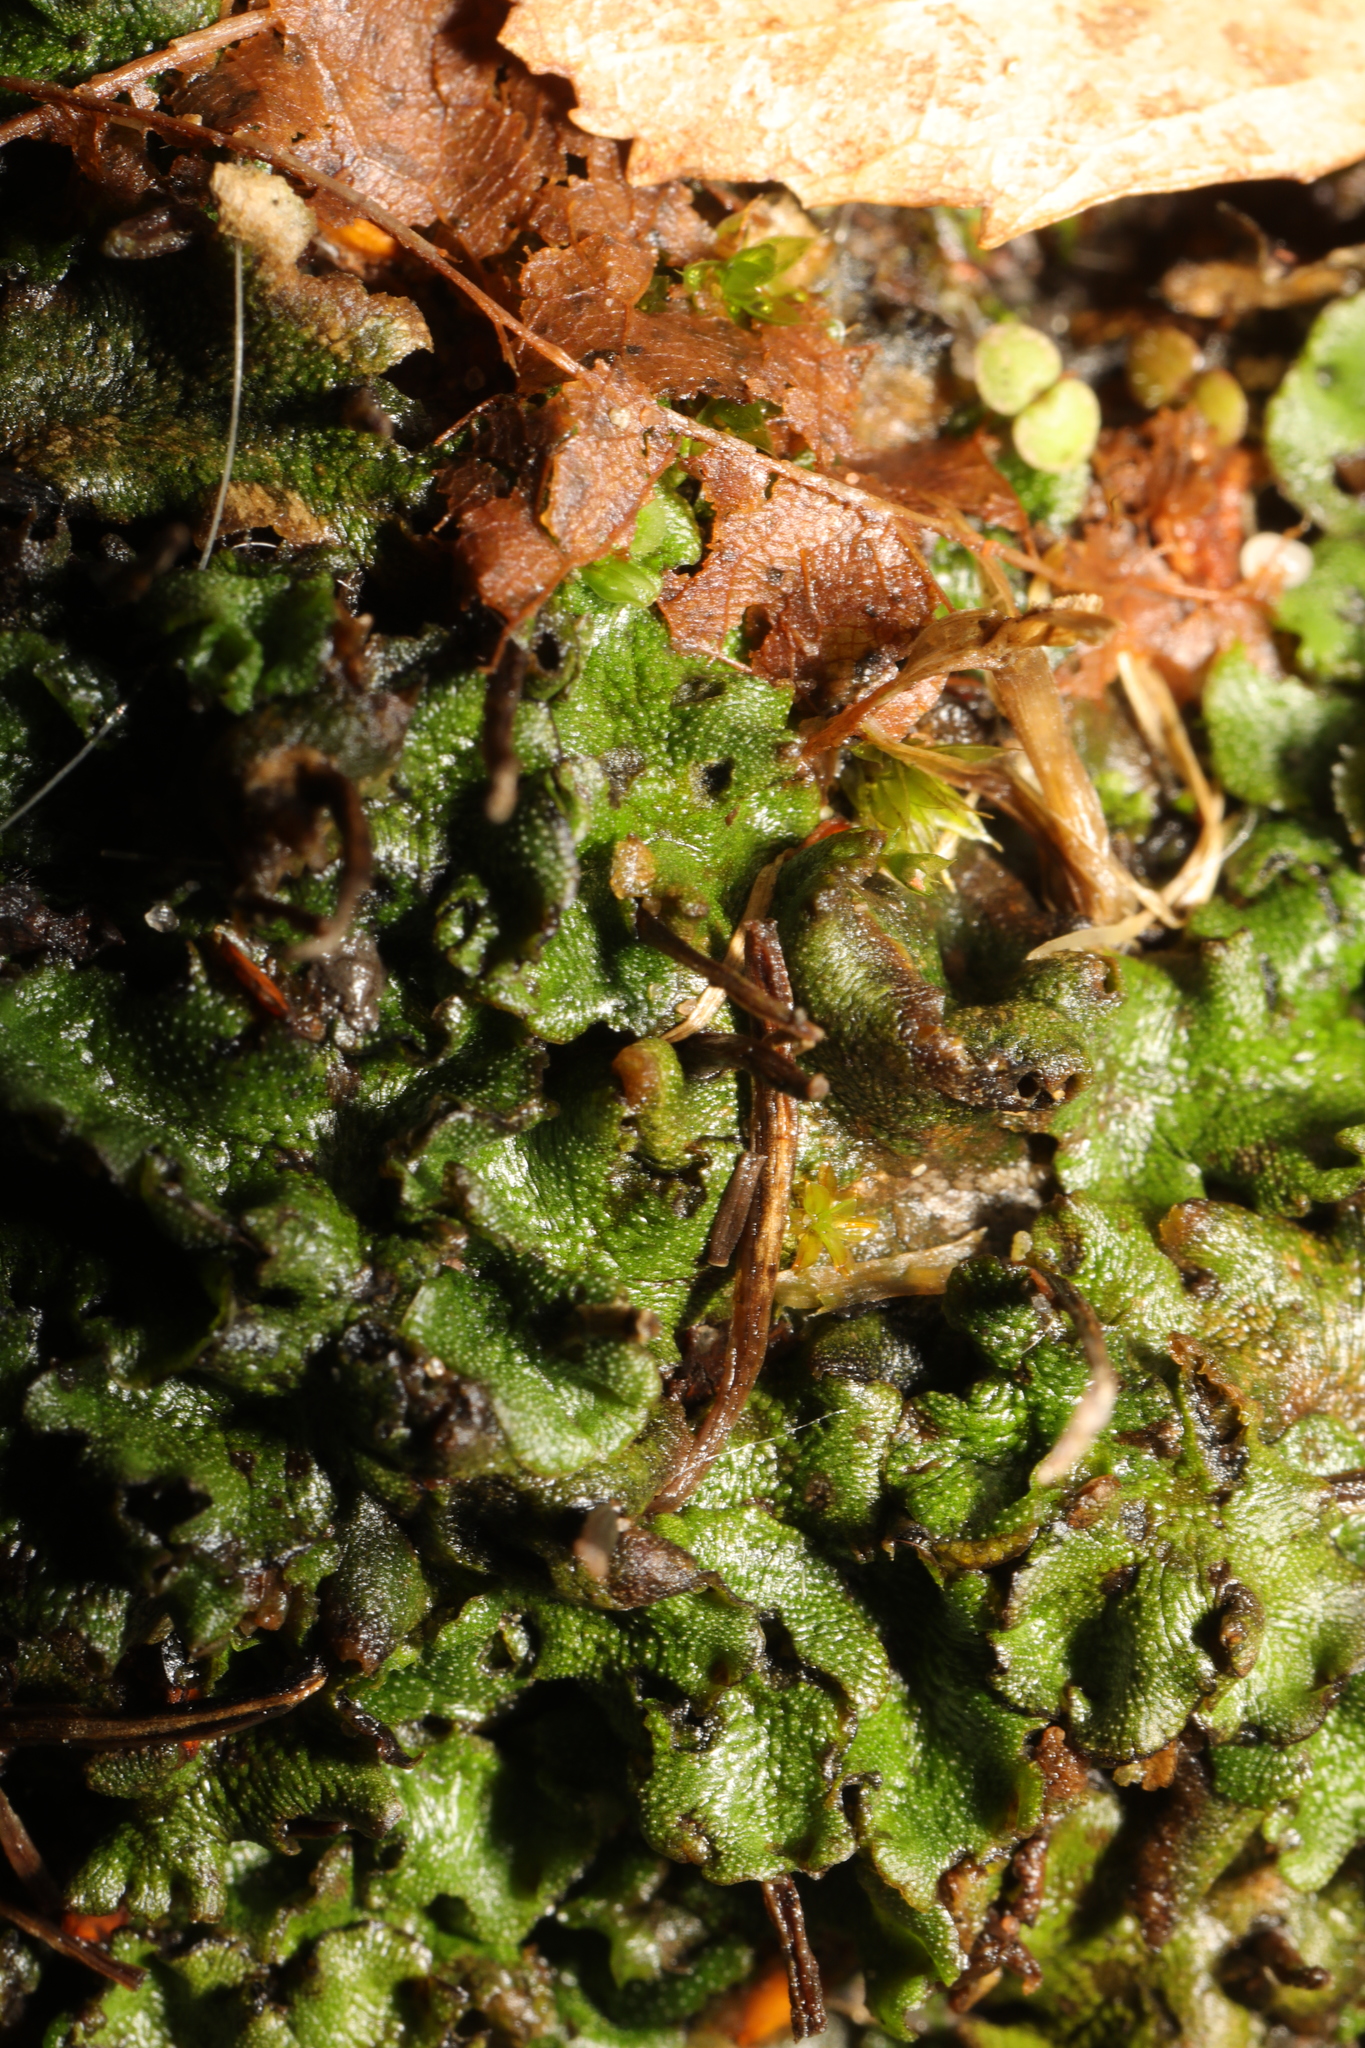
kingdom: Plantae
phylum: Marchantiophyta
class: Marchantiopsida
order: Marchantiales
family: Marchantiaceae
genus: Marchantia
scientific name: Marchantia polymorpha
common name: Common liverwort
